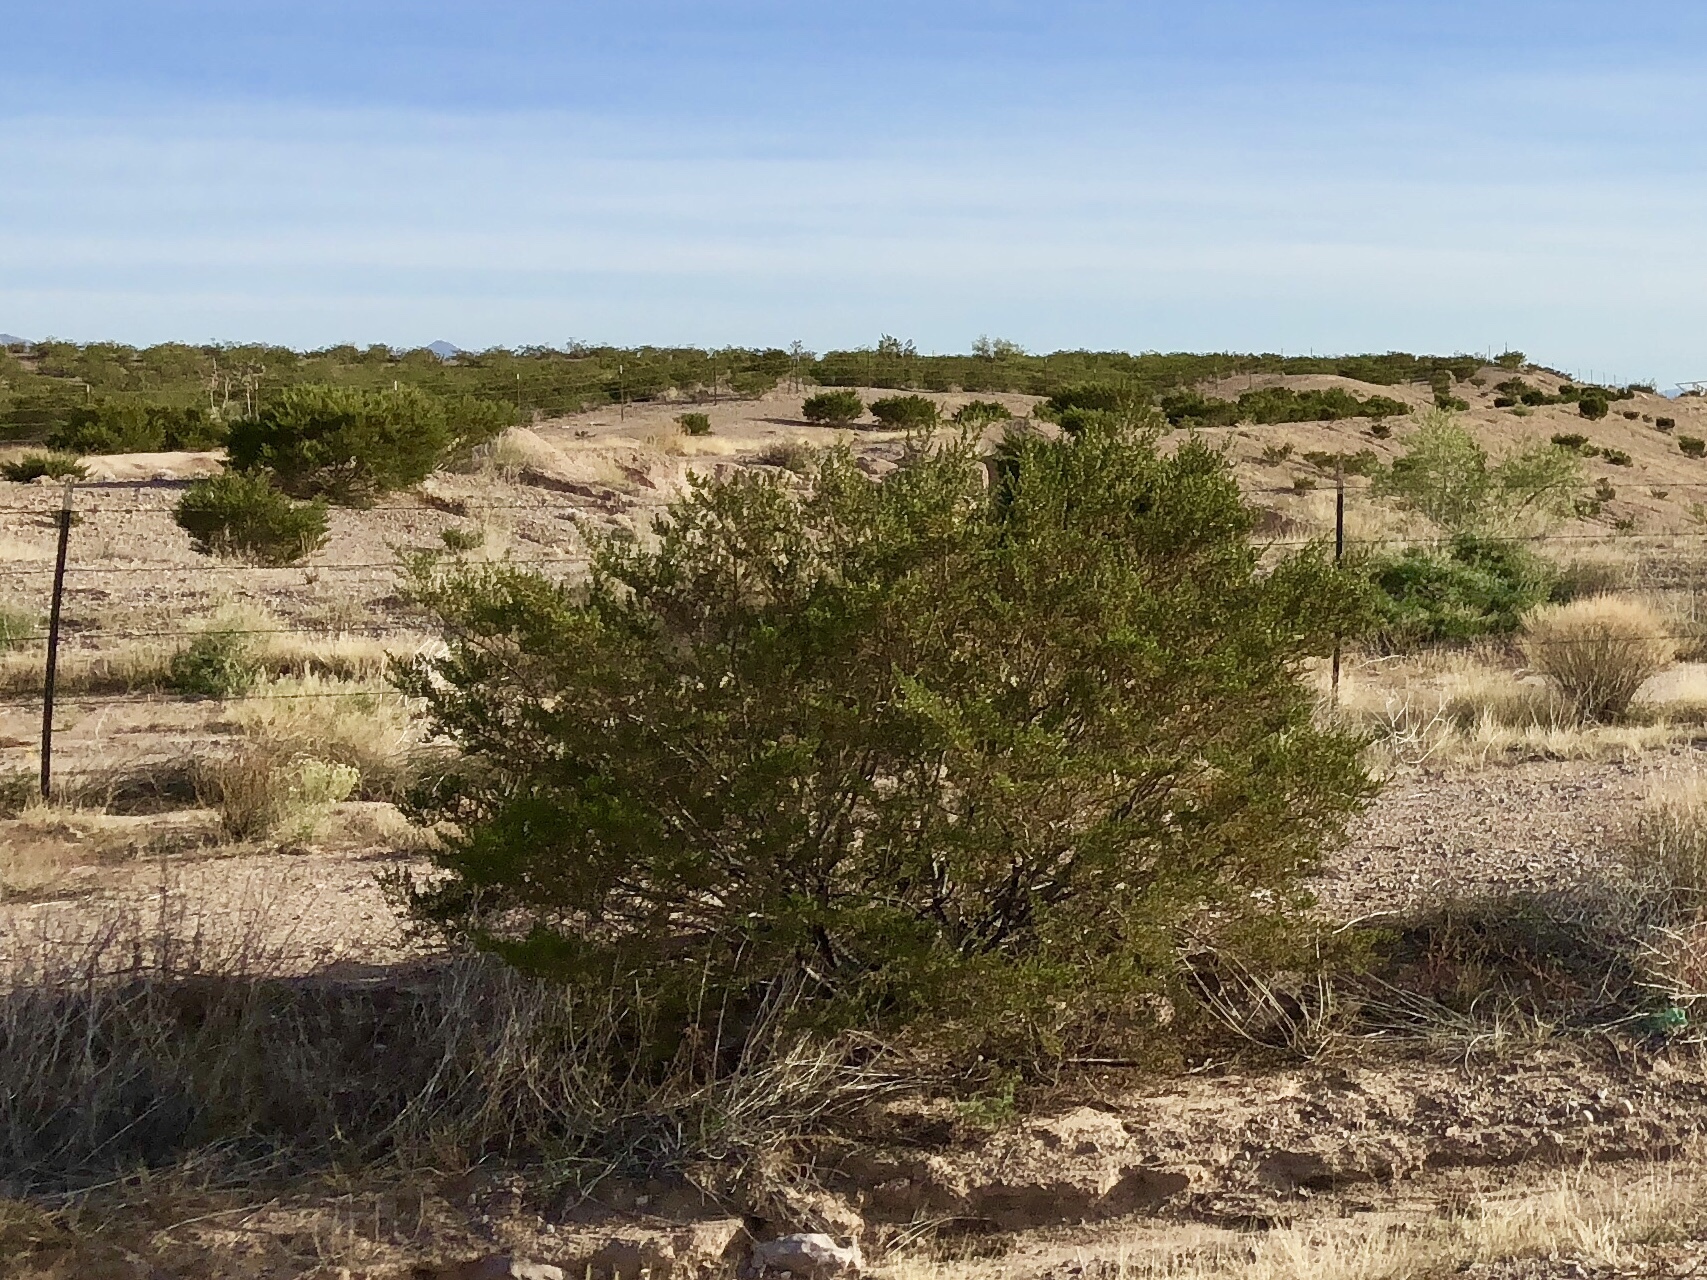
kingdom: Plantae
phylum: Tracheophyta
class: Magnoliopsida
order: Zygophyllales
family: Zygophyllaceae
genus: Larrea
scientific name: Larrea tridentata
